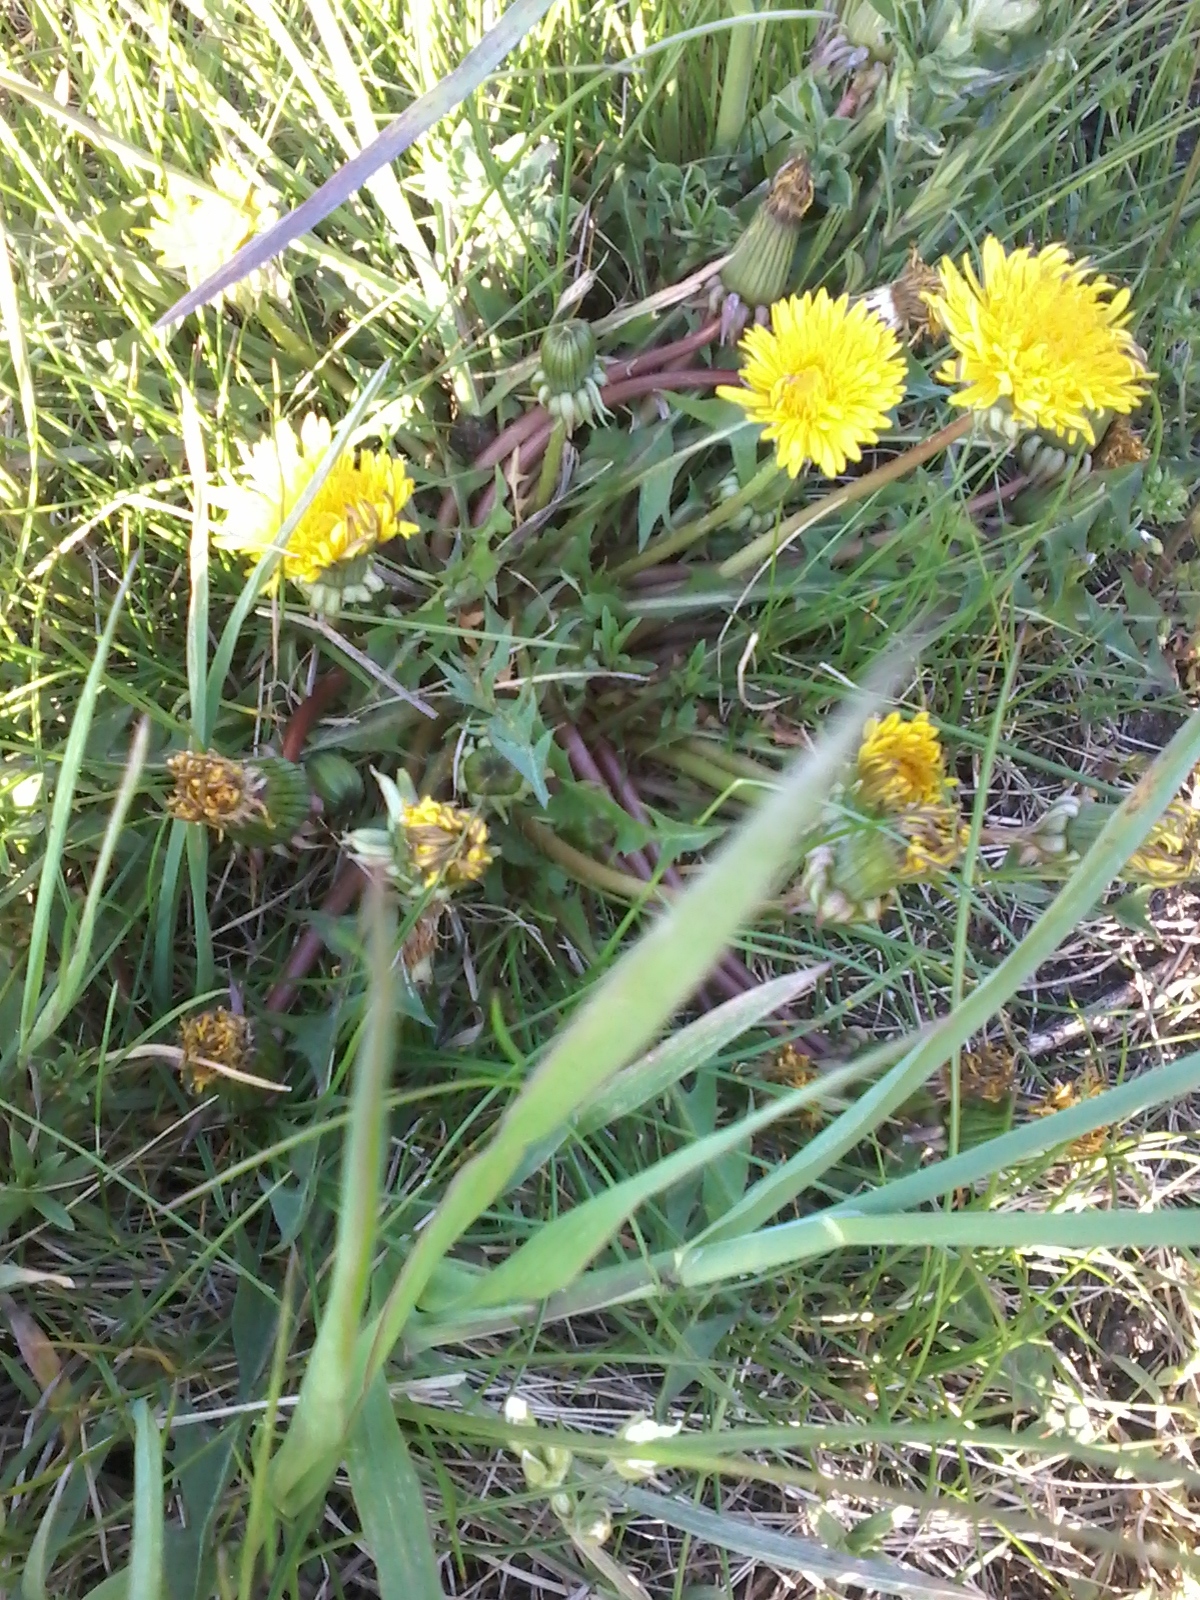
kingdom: Plantae
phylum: Tracheophyta
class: Magnoliopsida
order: Asterales
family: Asteraceae
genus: Taraxacum
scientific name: Taraxacum officinale
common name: Common dandelion
